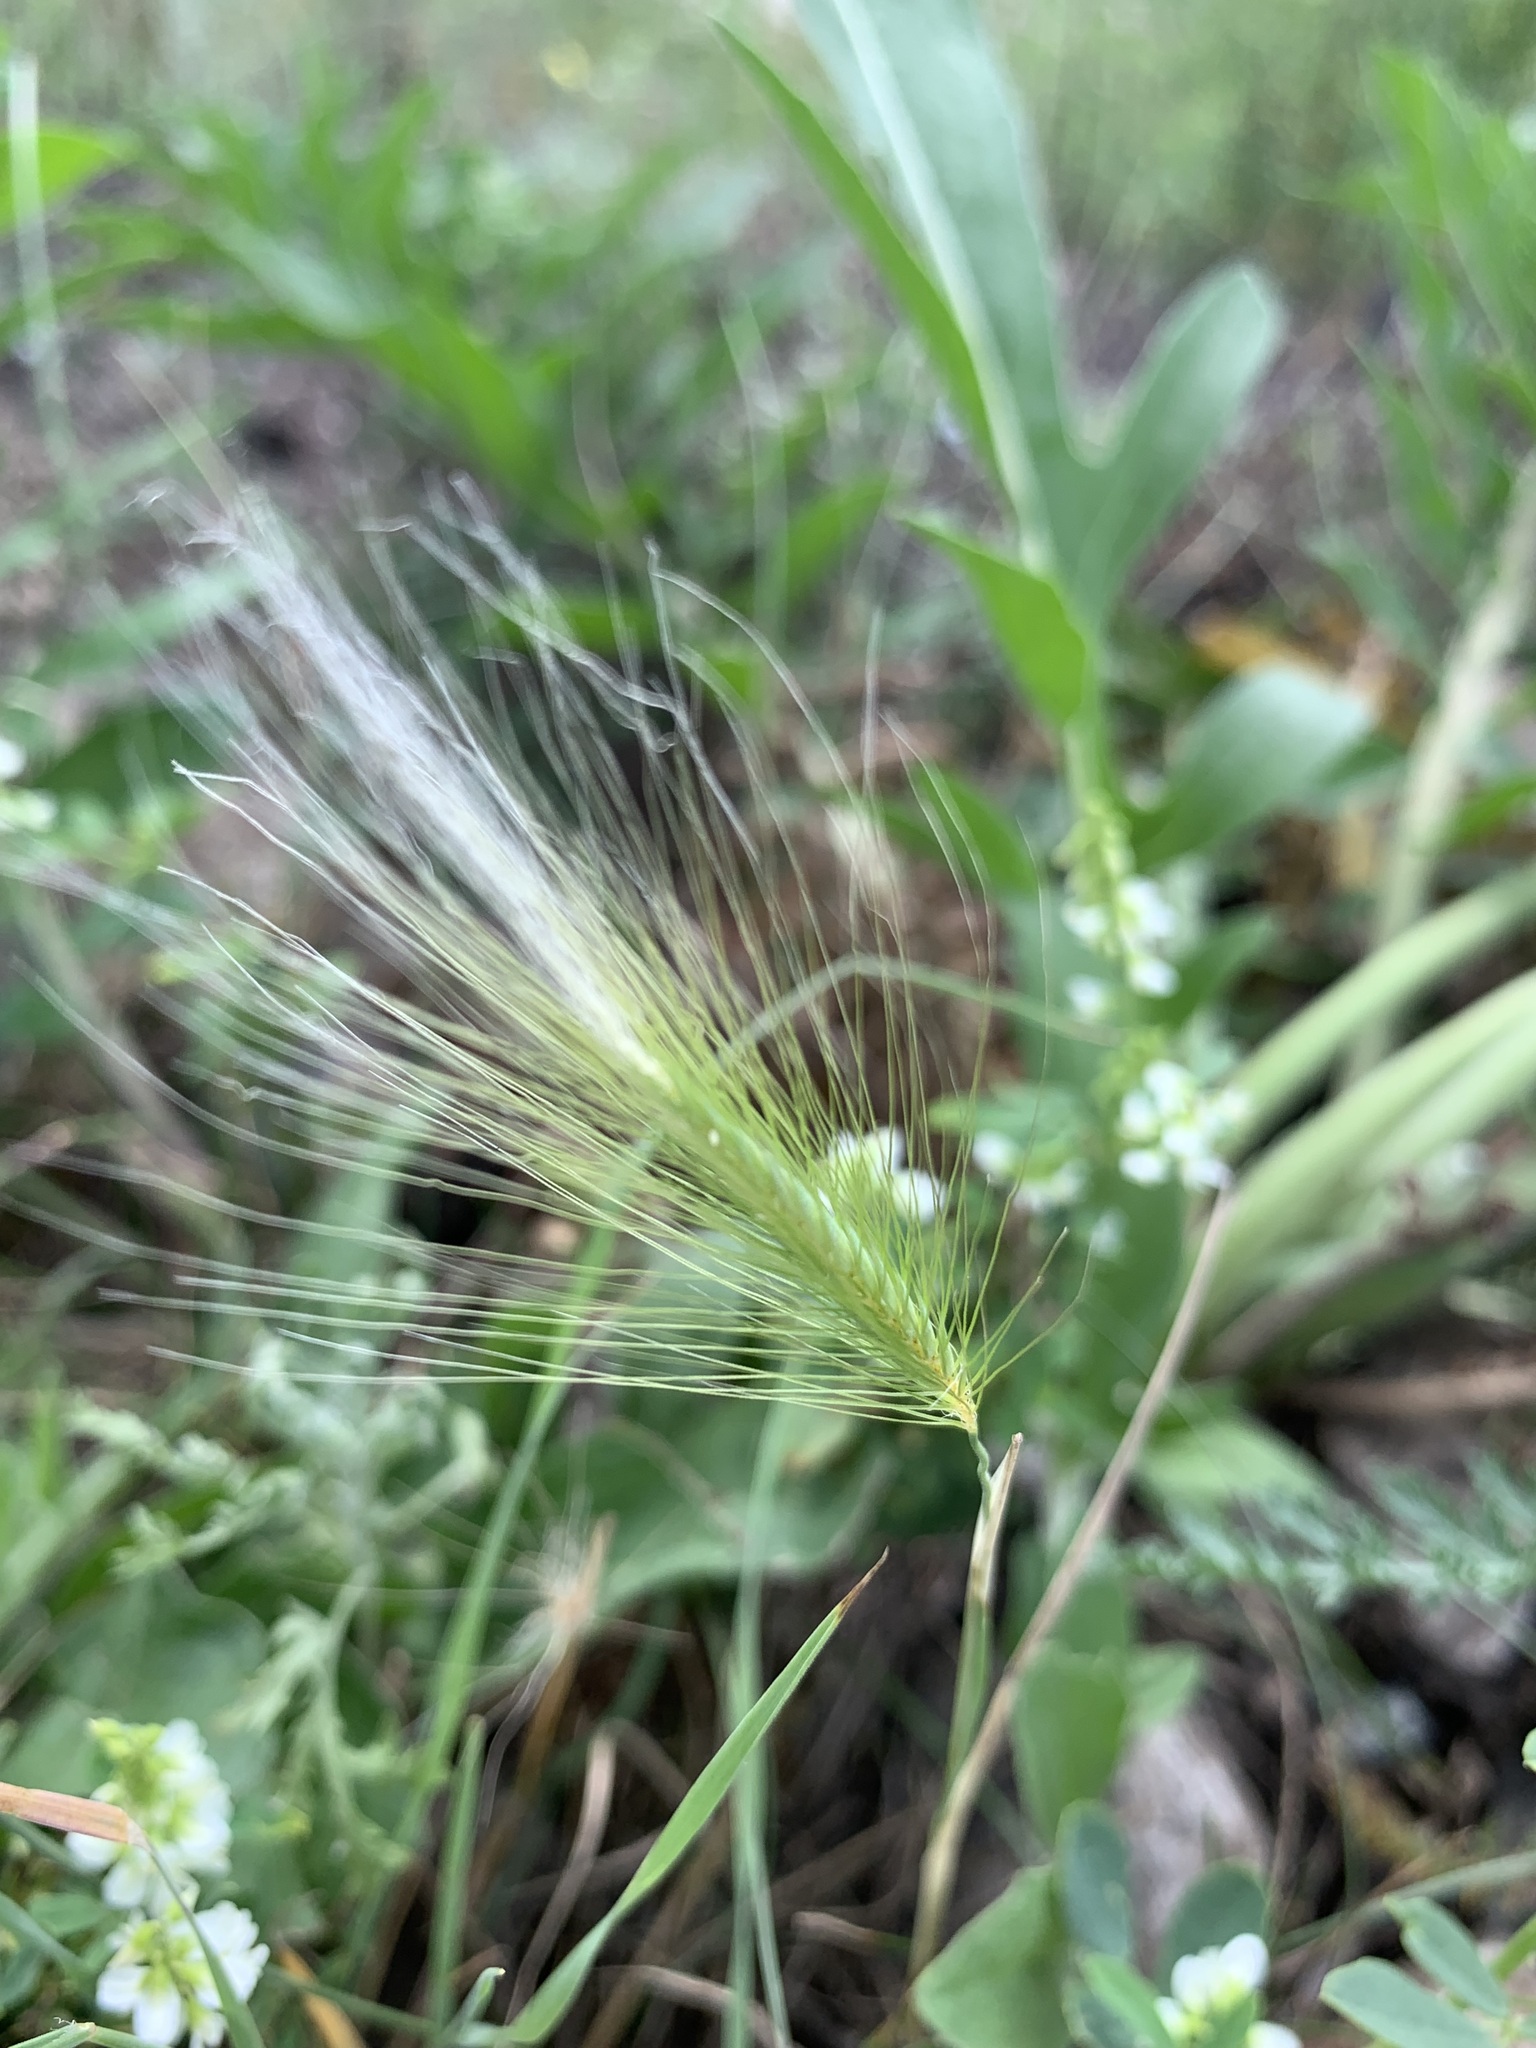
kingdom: Plantae
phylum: Tracheophyta
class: Liliopsida
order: Poales
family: Poaceae
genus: Hordeum
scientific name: Hordeum jubatum
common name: Foxtail barley
